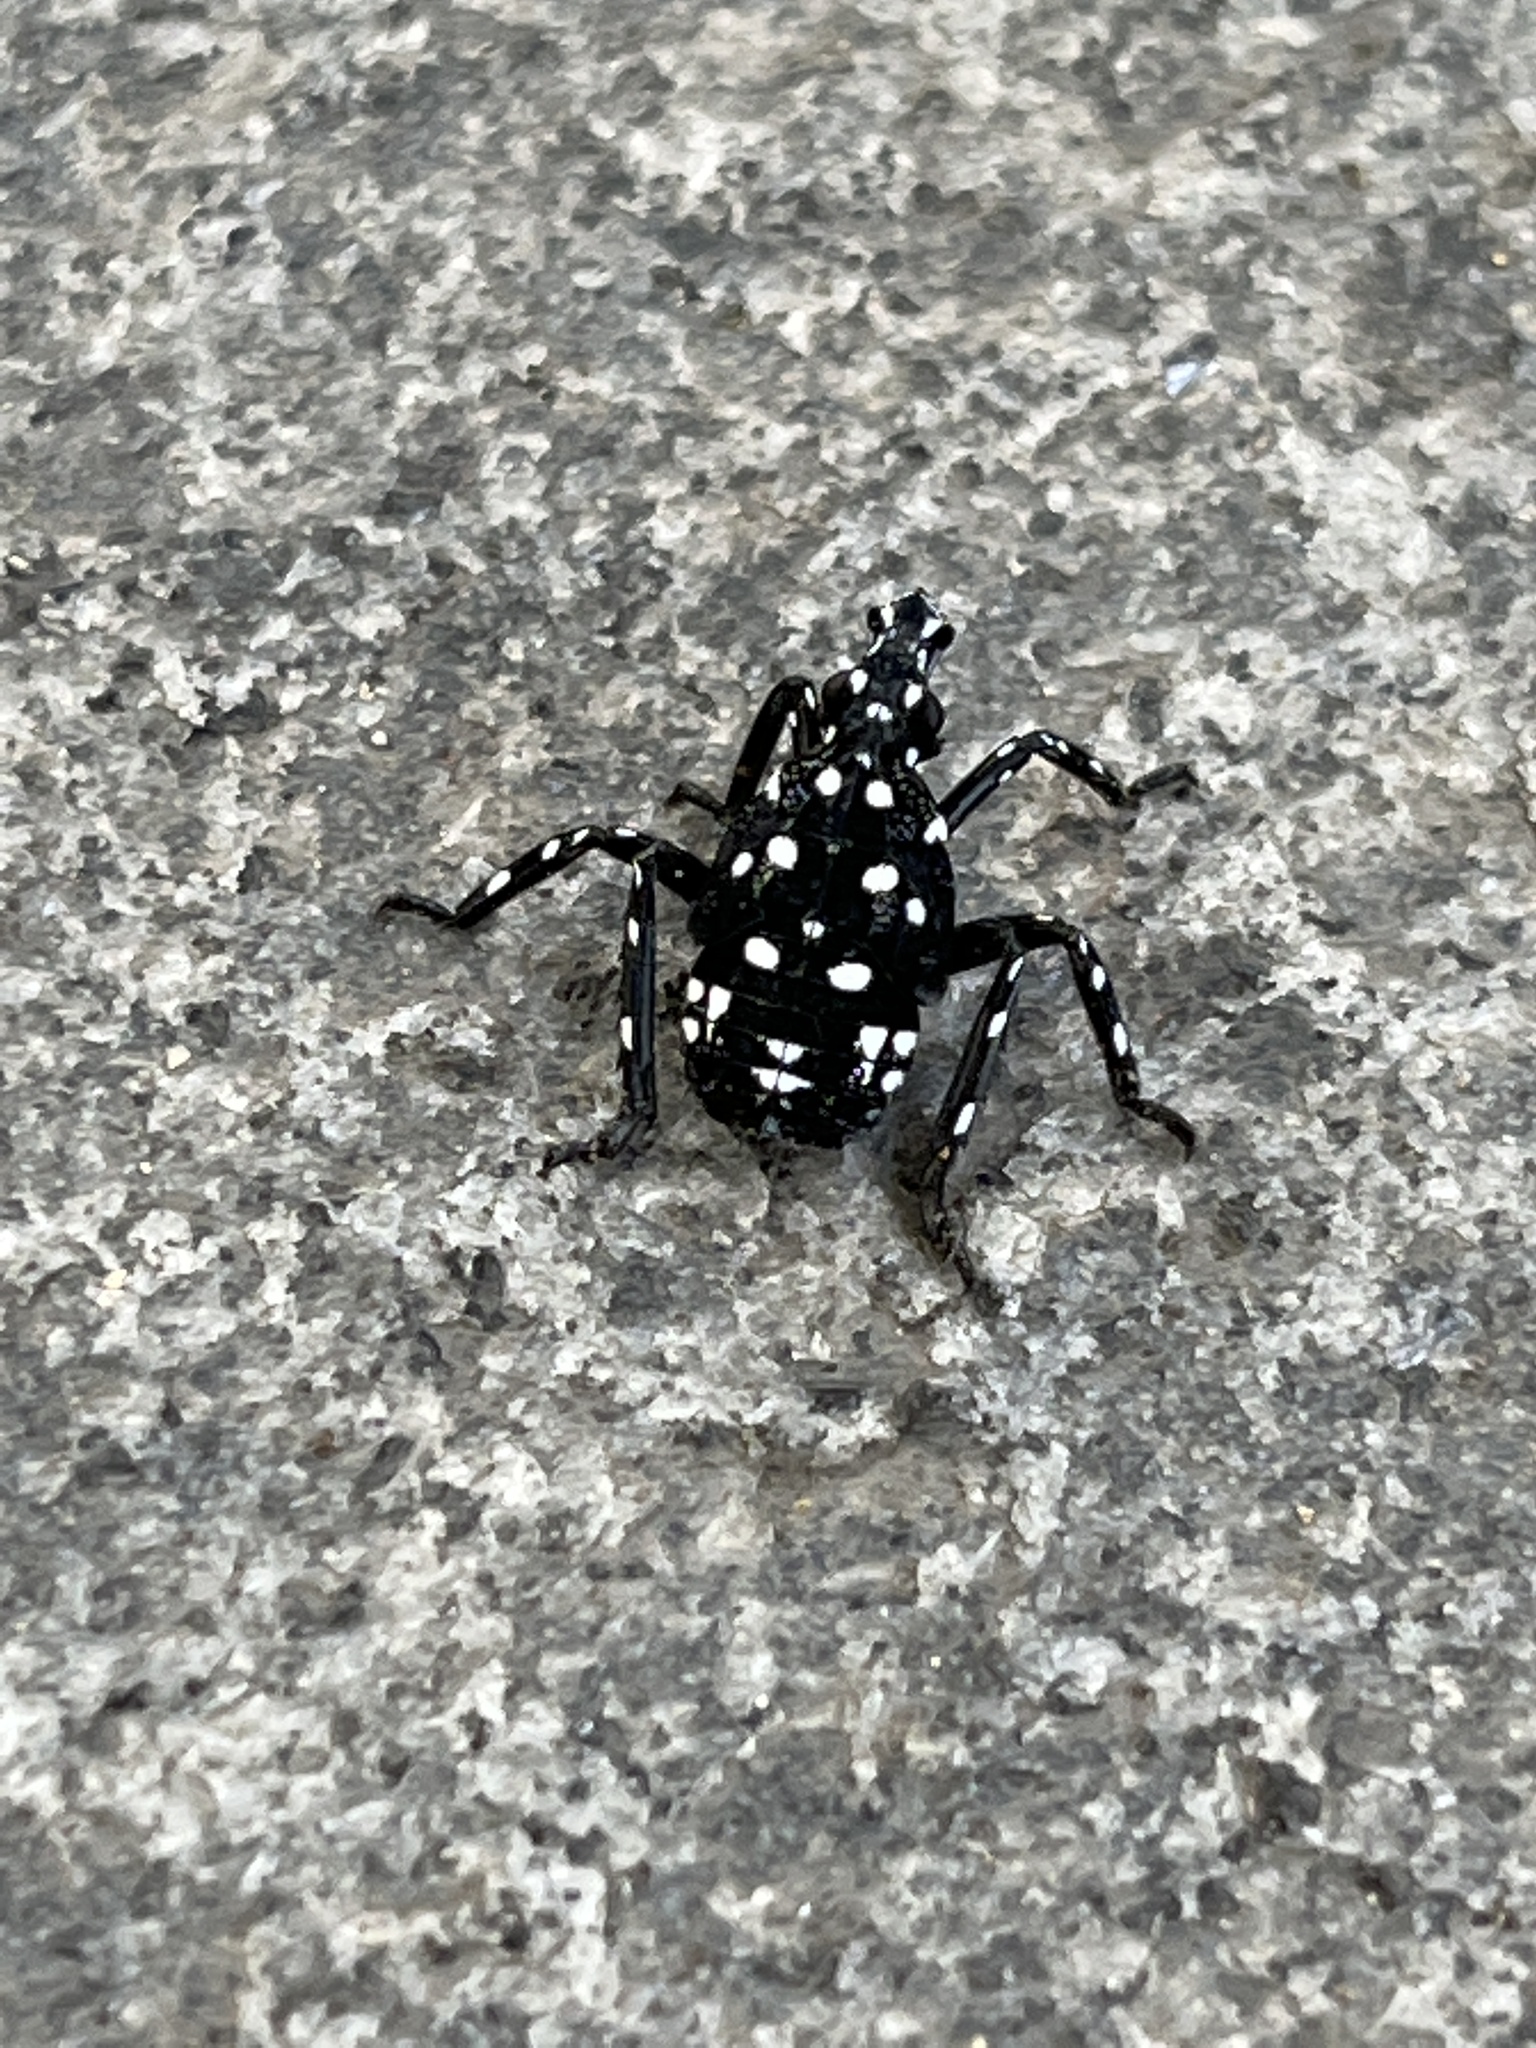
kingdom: Animalia
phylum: Arthropoda
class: Insecta
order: Hemiptera
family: Fulgoridae
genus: Lycorma
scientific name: Lycorma delicatula
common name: Spotted lanternfly
